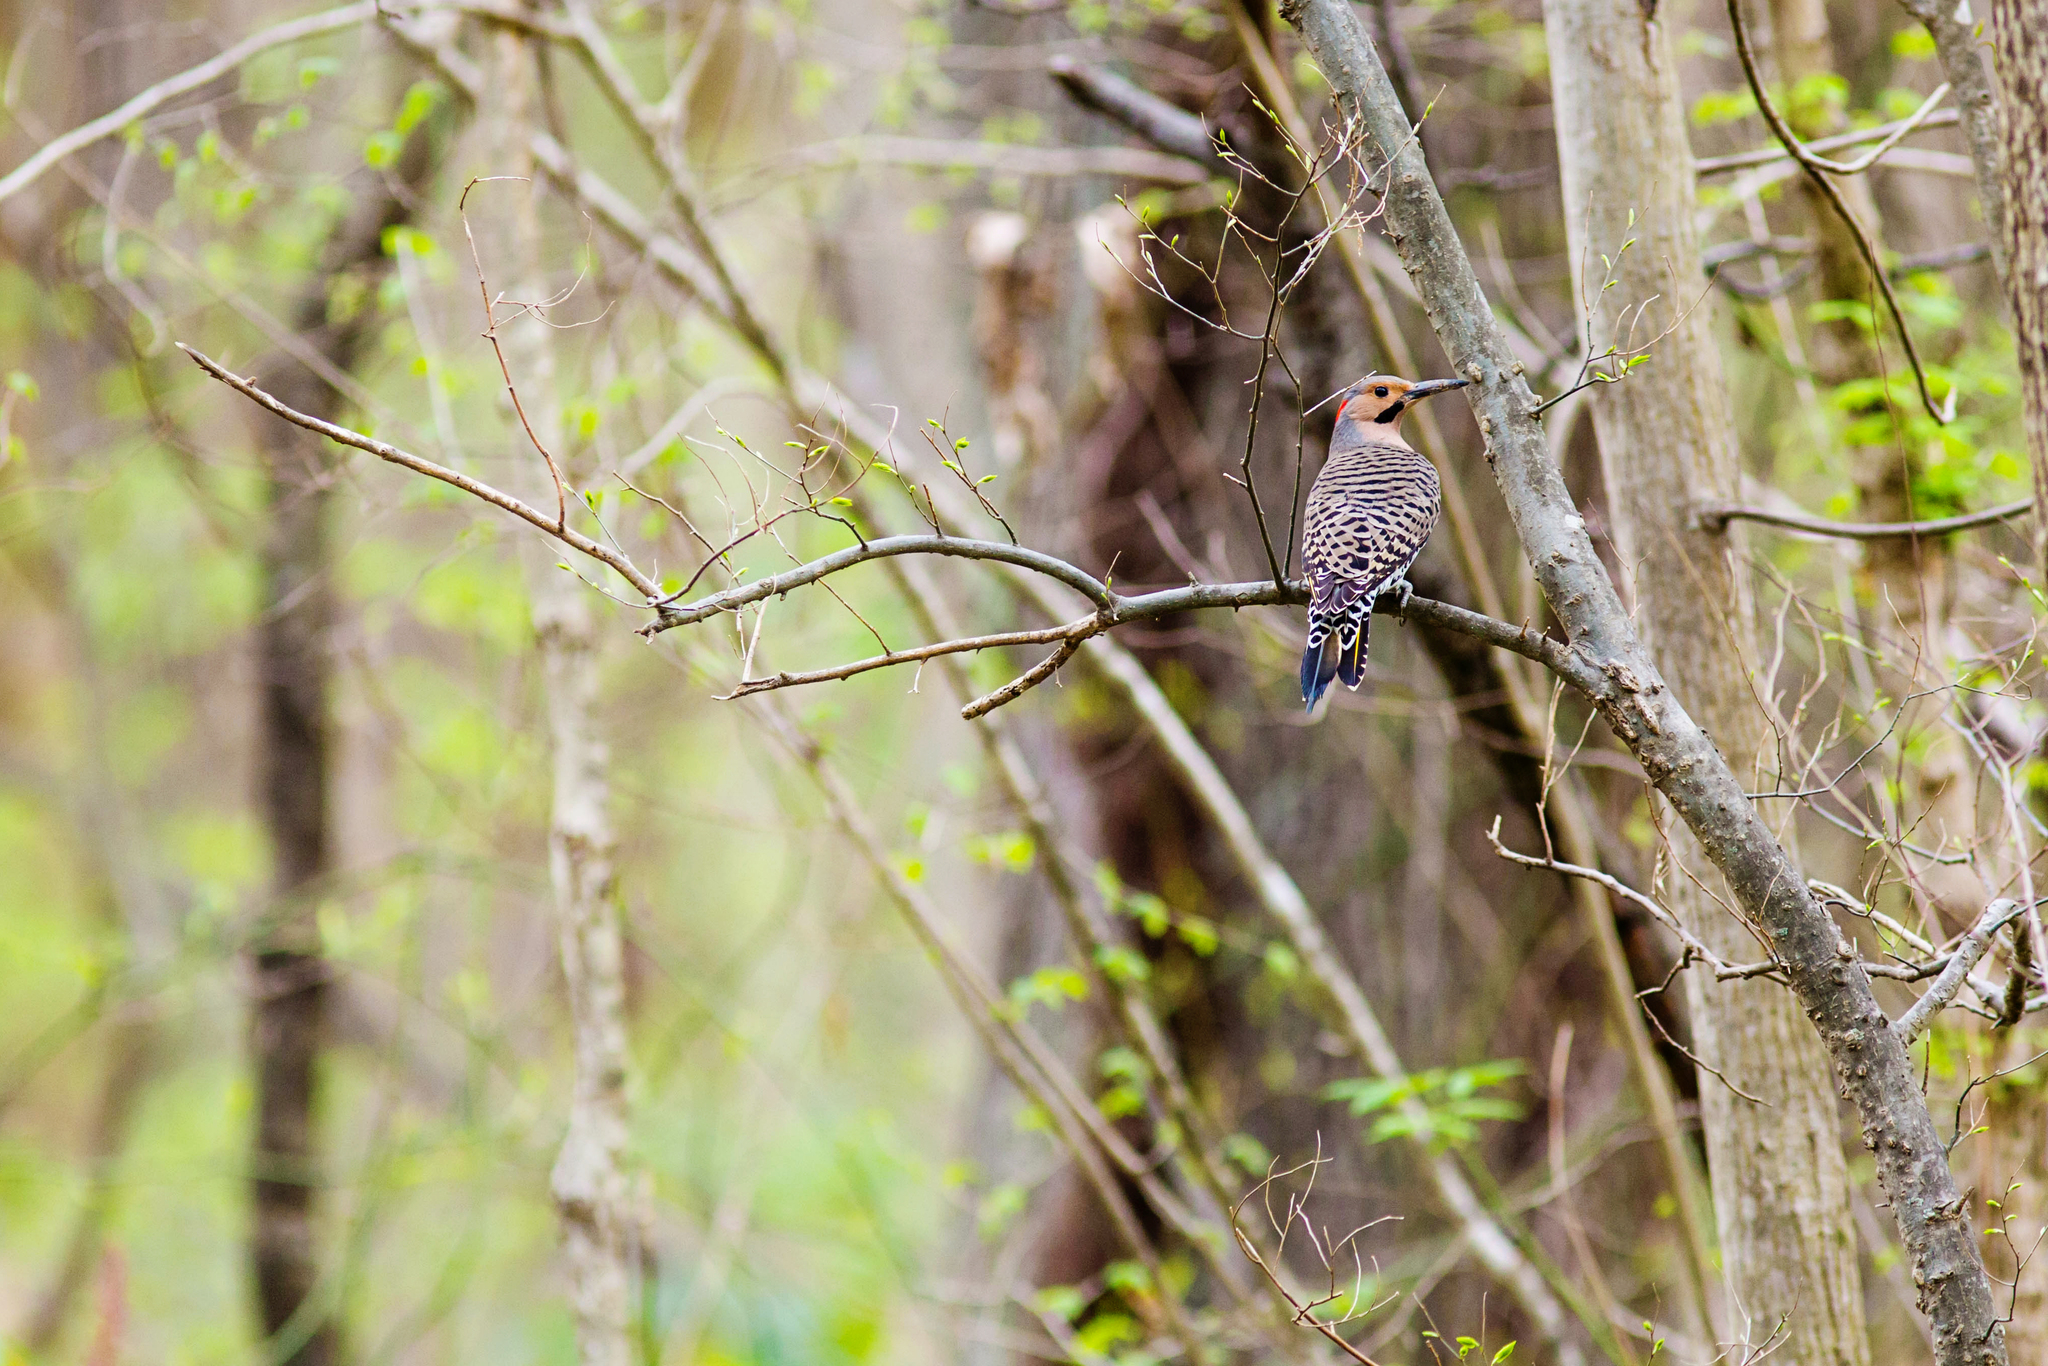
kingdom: Animalia
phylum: Chordata
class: Aves
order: Piciformes
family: Picidae
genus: Colaptes
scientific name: Colaptes auratus
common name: Northern flicker
